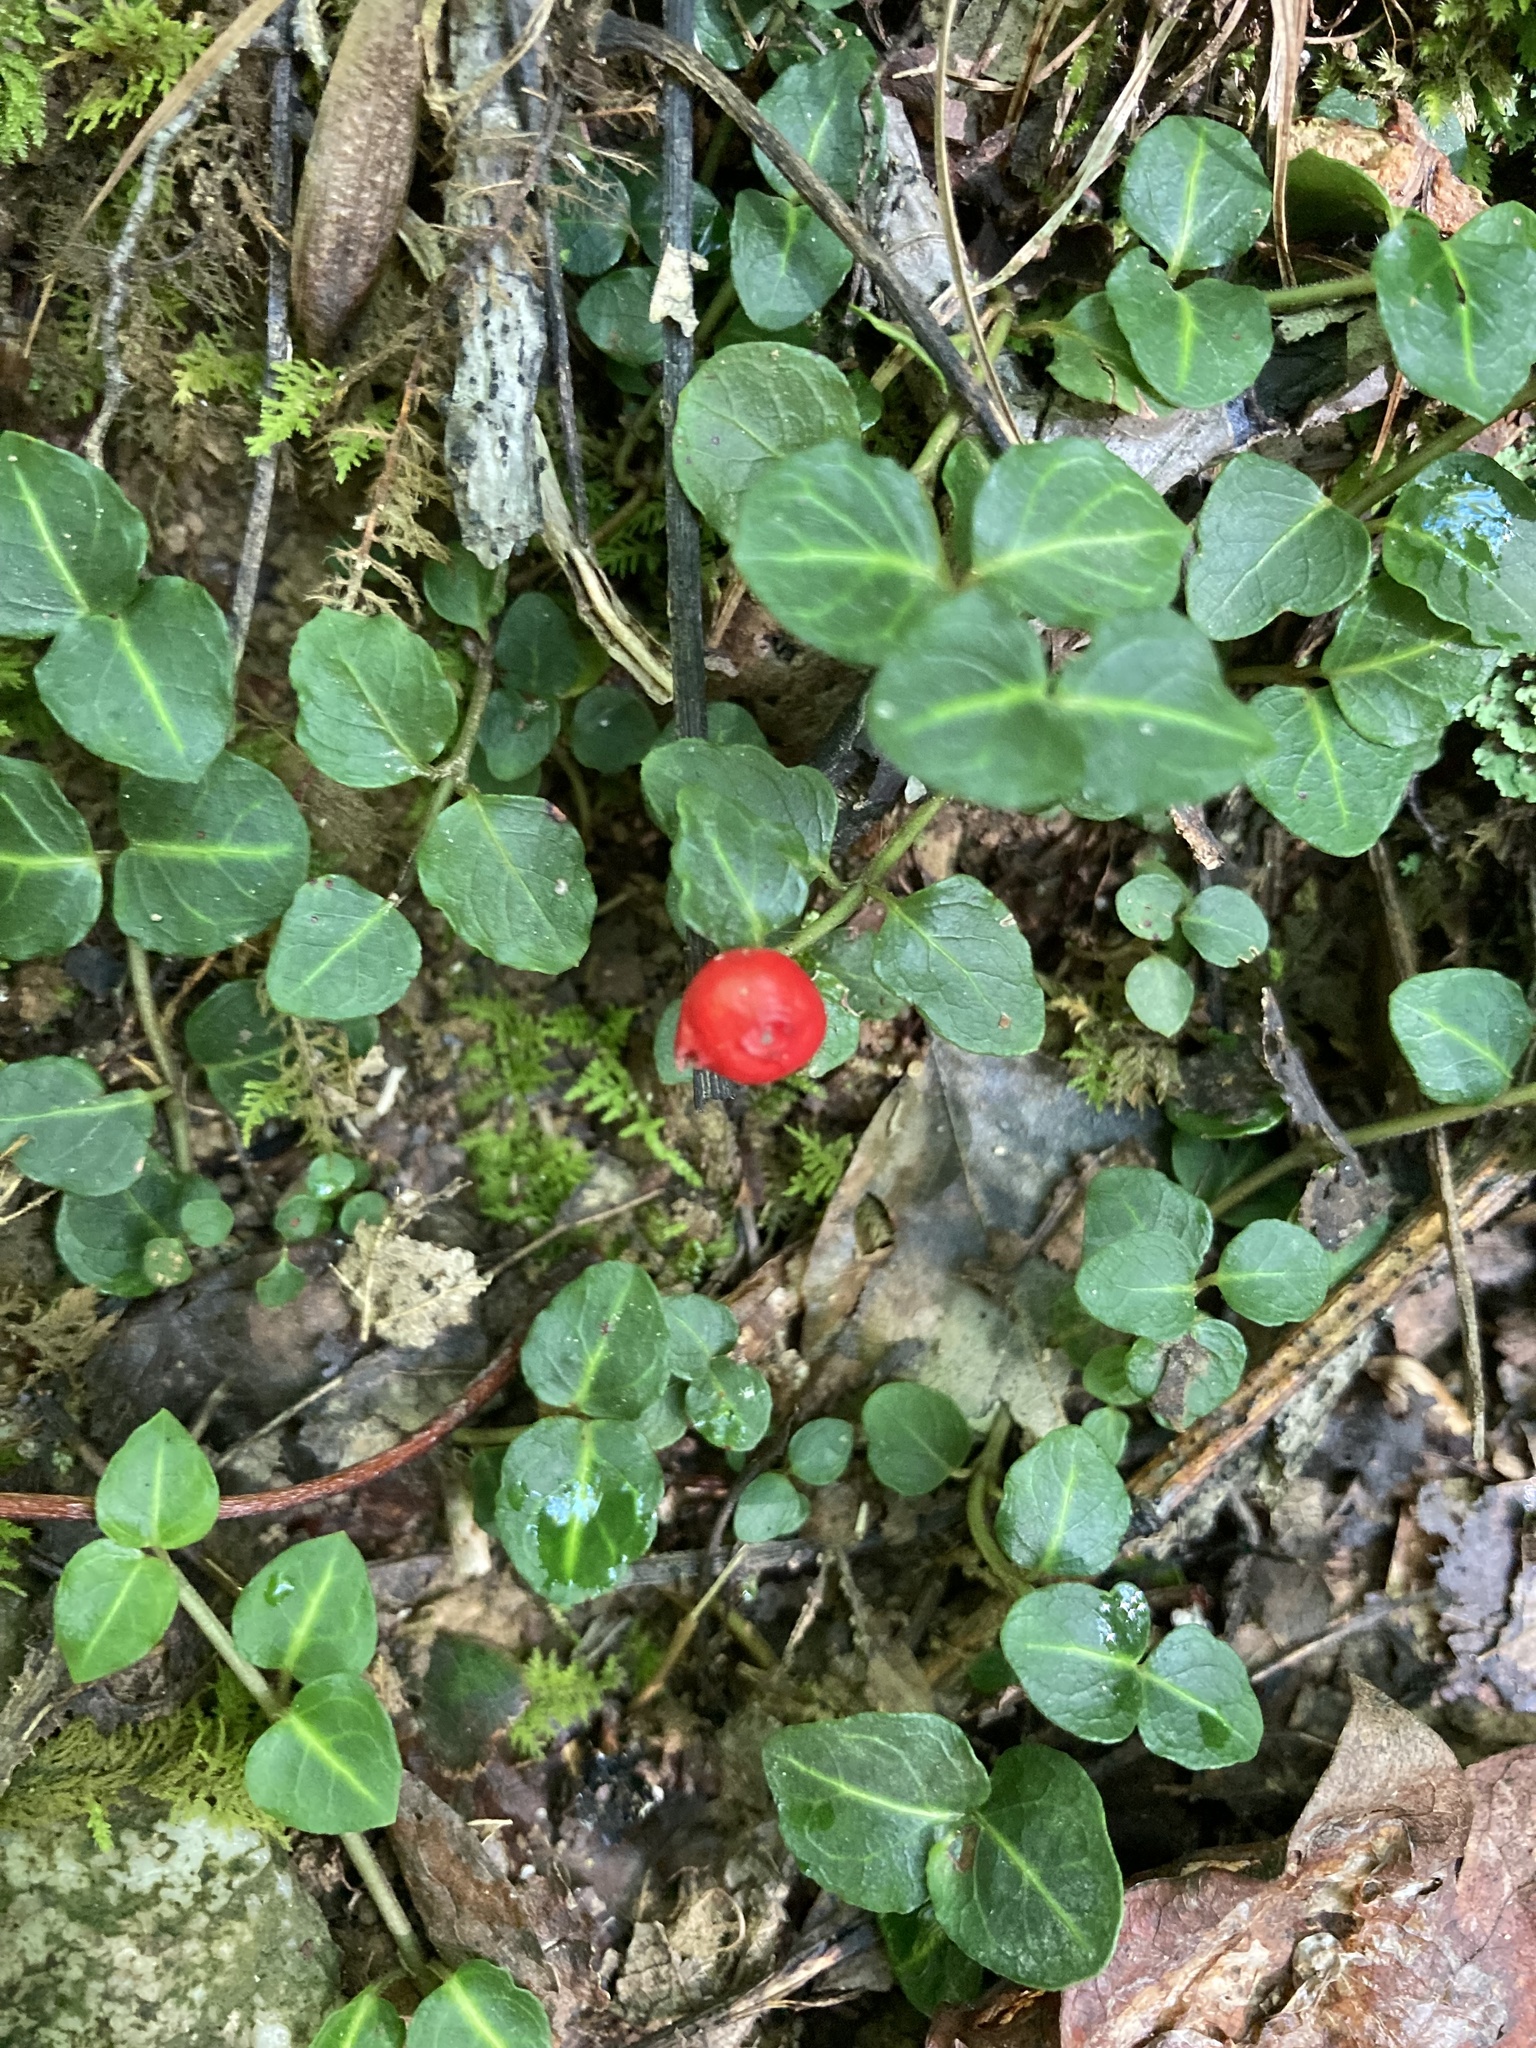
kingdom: Plantae
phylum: Tracheophyta
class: Magnoliopsida
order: Gentianales
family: Rubiaceae
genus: Mitchella
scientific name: Mitchella repens
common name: Partridge-berry
